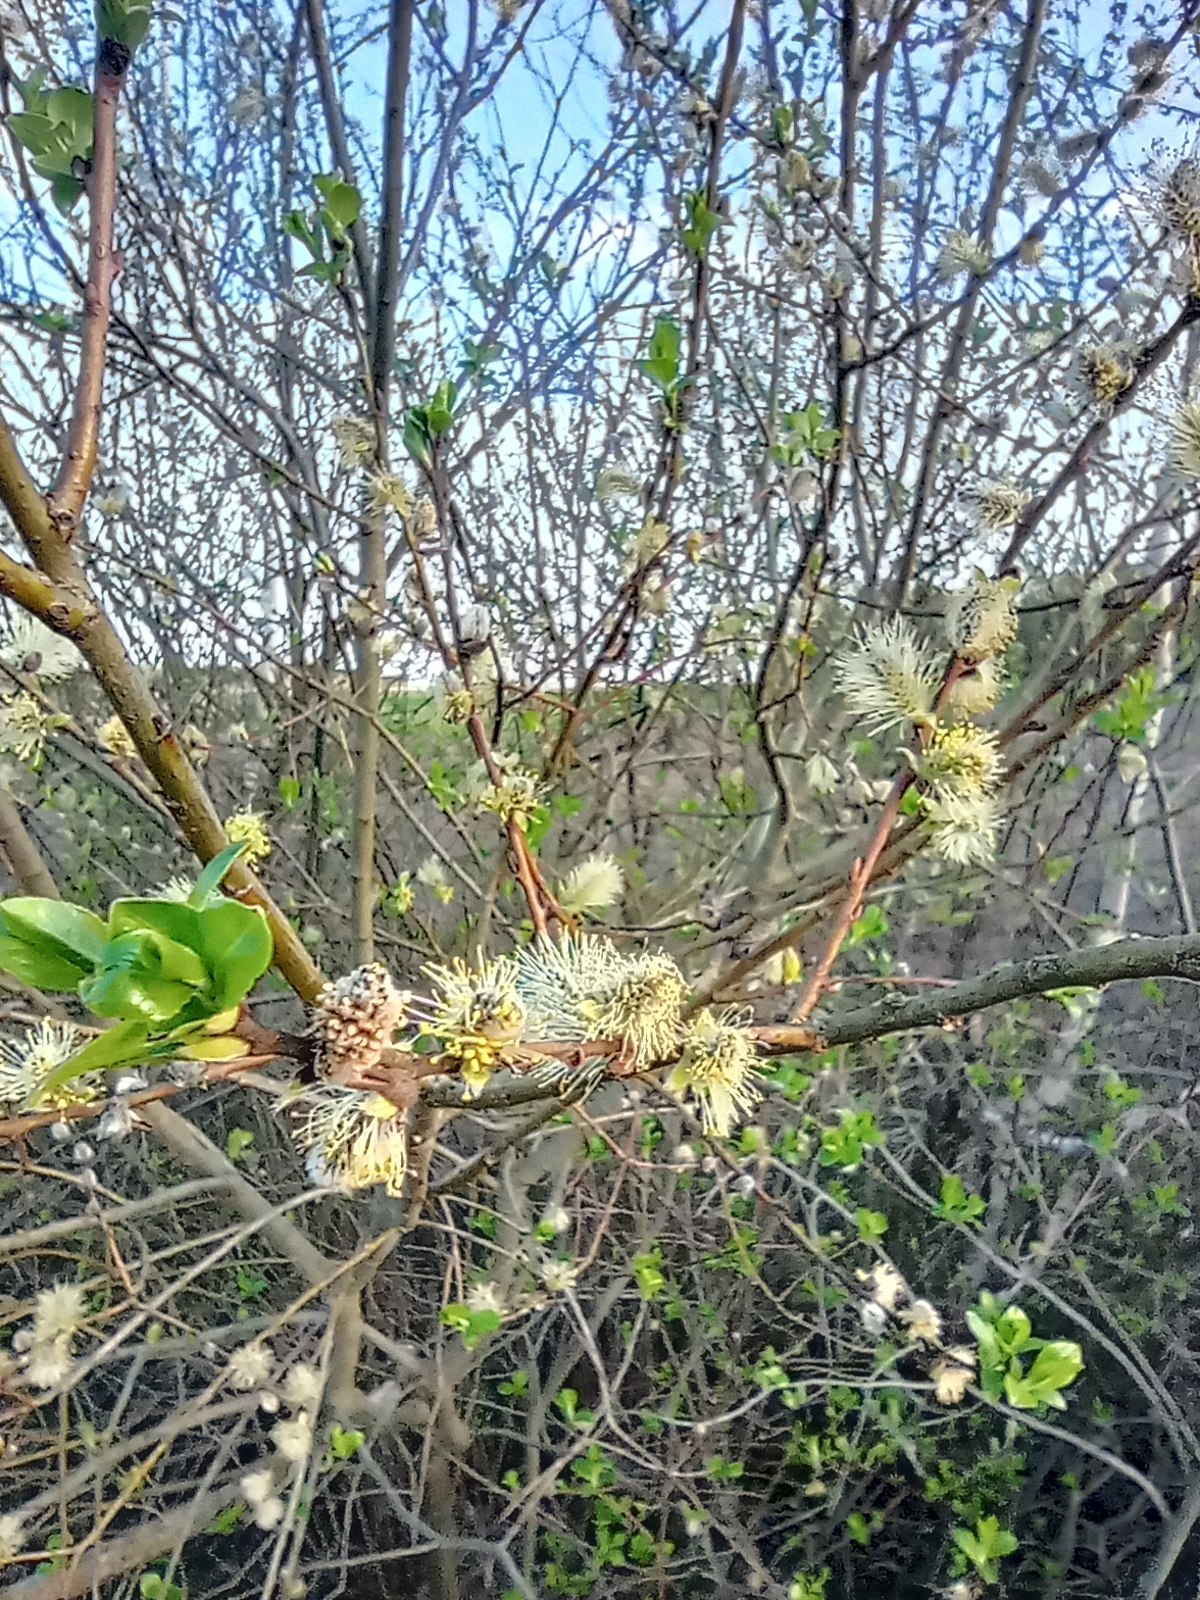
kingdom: Plantae
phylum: Tracheophyta
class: Magnoliopsida
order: Malpighiales
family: Salicaceae
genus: Salix
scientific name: Salix cinerea
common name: Common sallow
